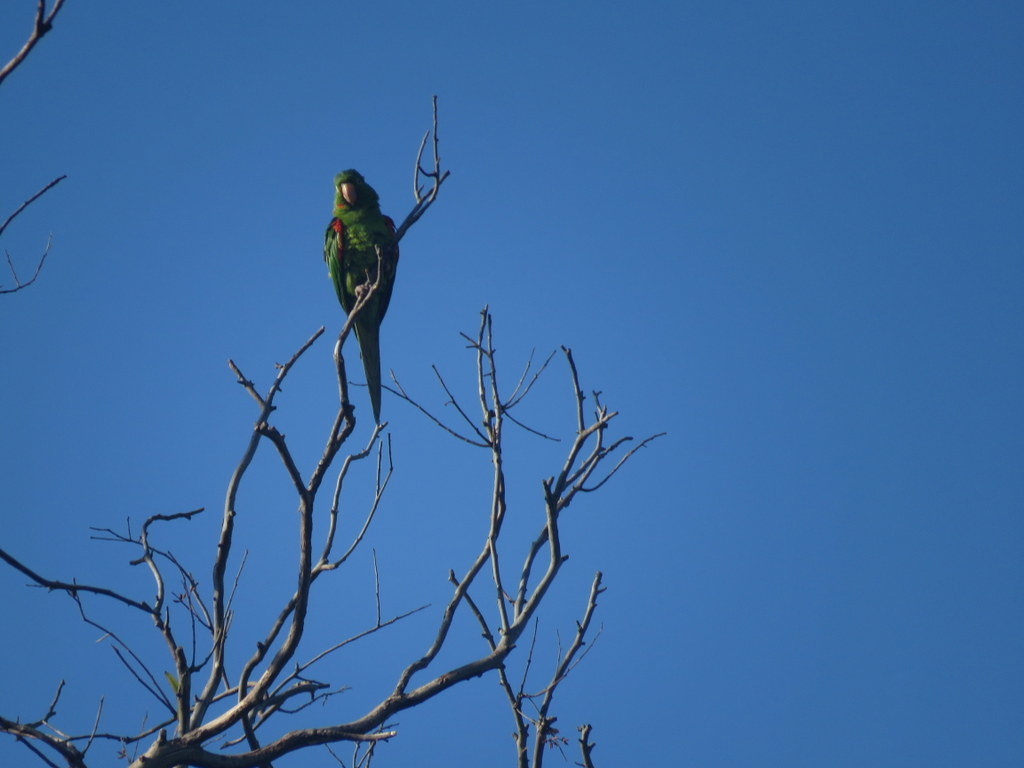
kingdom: Animalia
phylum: Chordata
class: Aves
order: Psittaciformes
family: Psittacidae
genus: Aratinga
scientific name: Aratinga leucophthalma
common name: White-eyed parakeet
